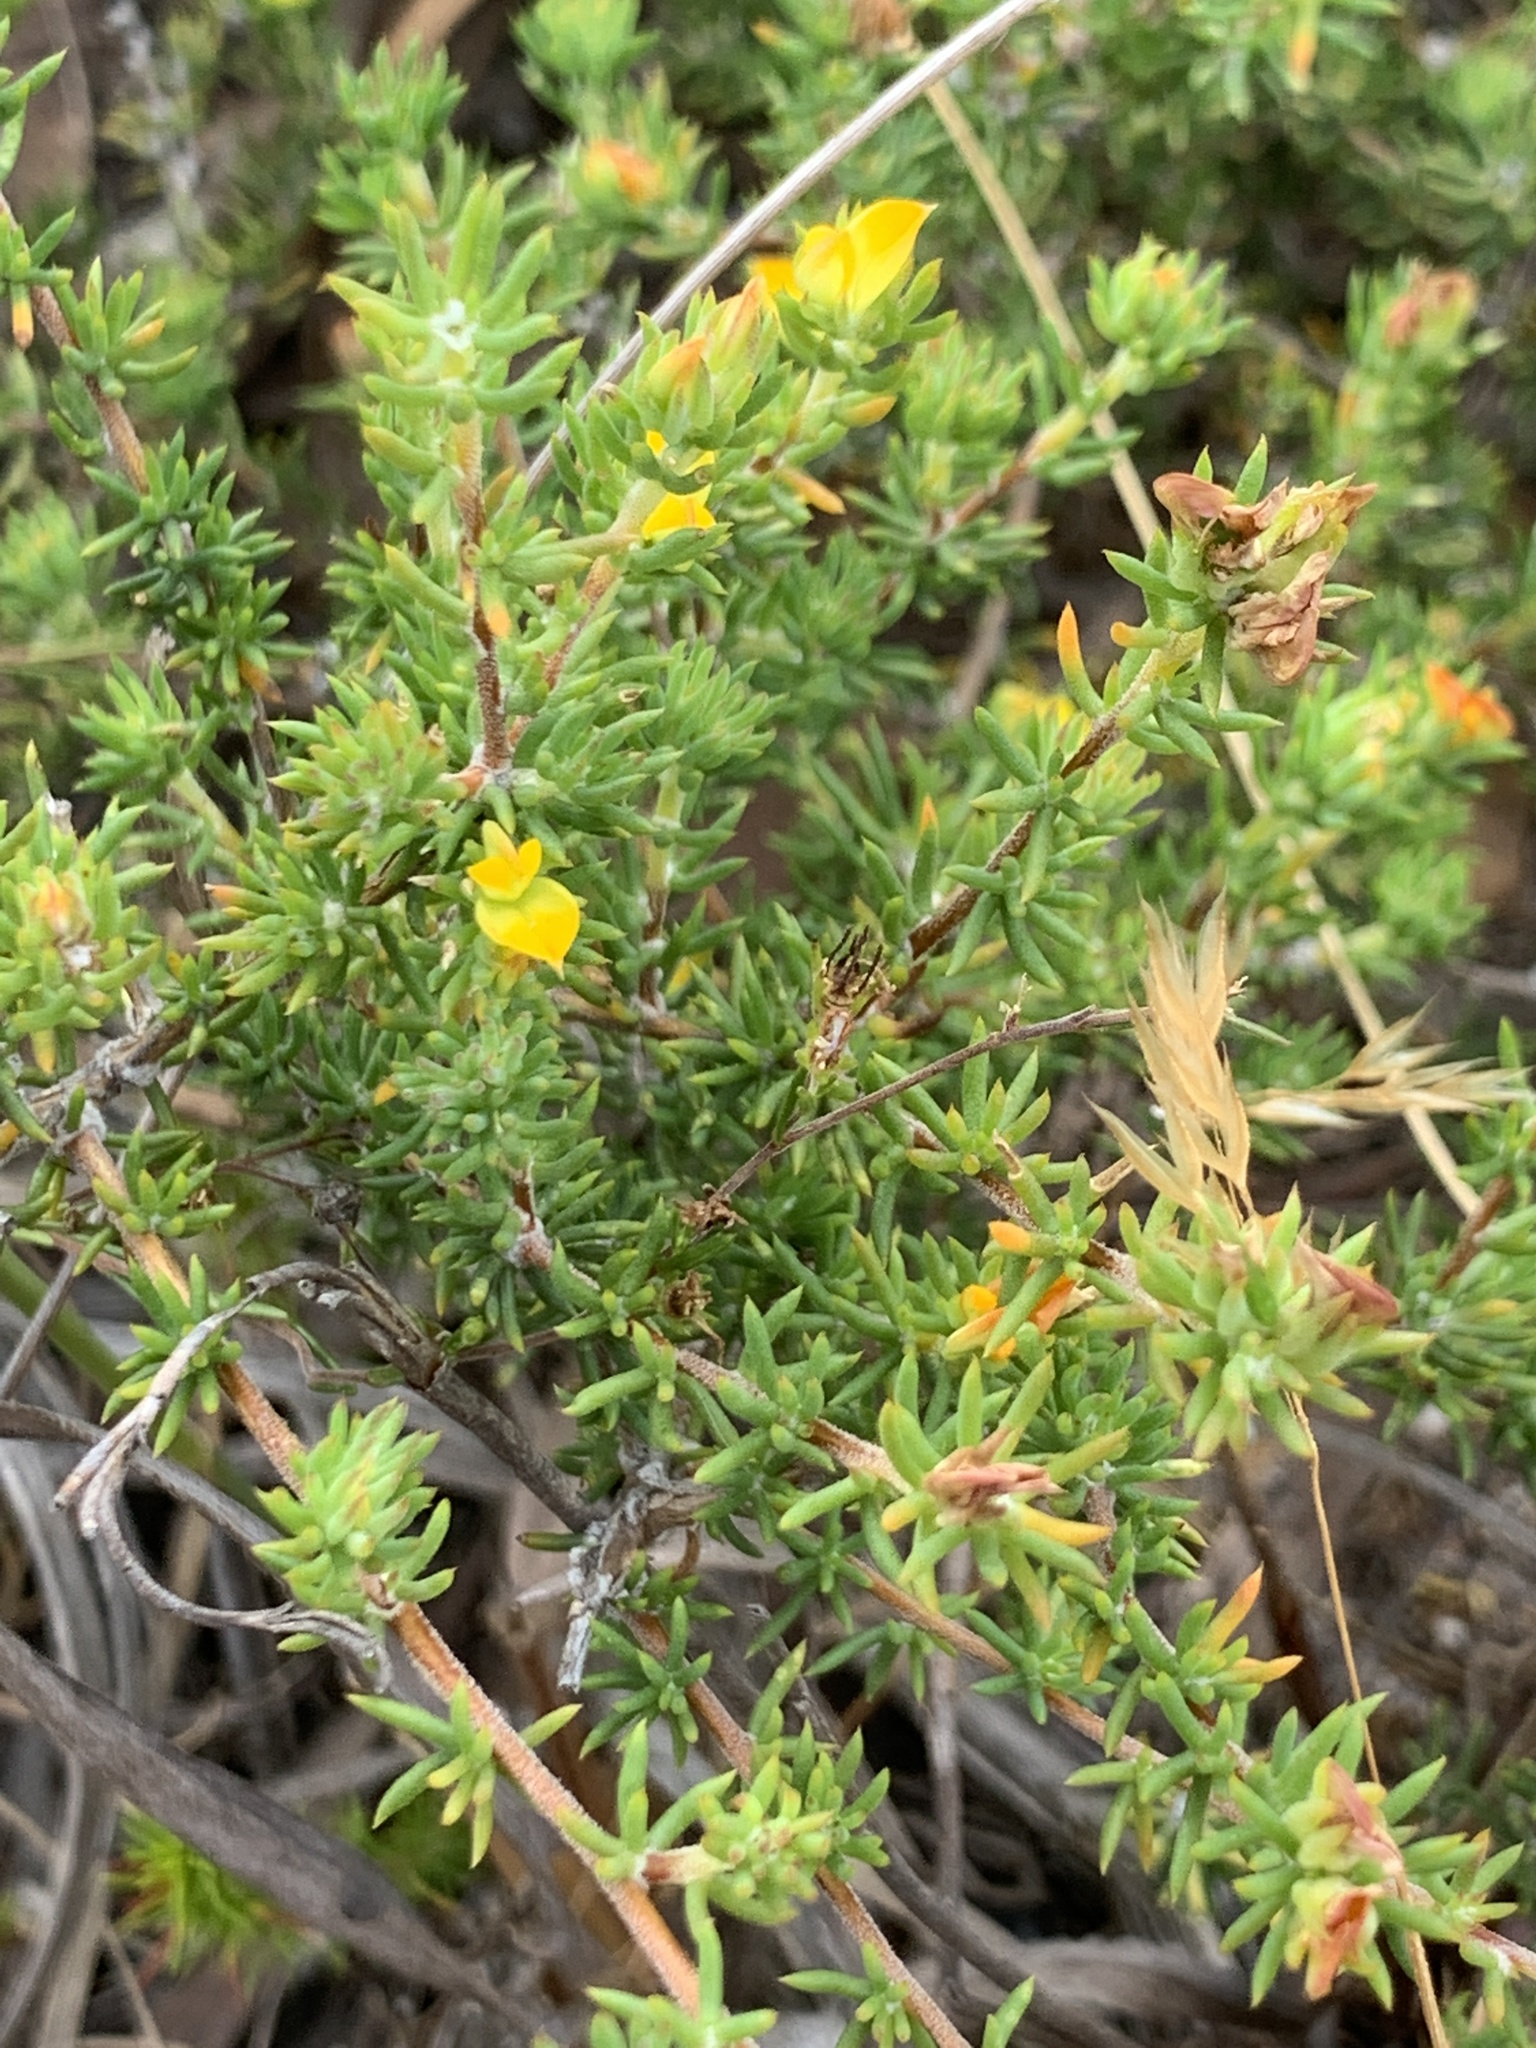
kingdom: Plantae
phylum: Tracheophyta
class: Magnoliopsida
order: Fabales
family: Fabaceae
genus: Aspalathus
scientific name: Aspalathus juniperina
